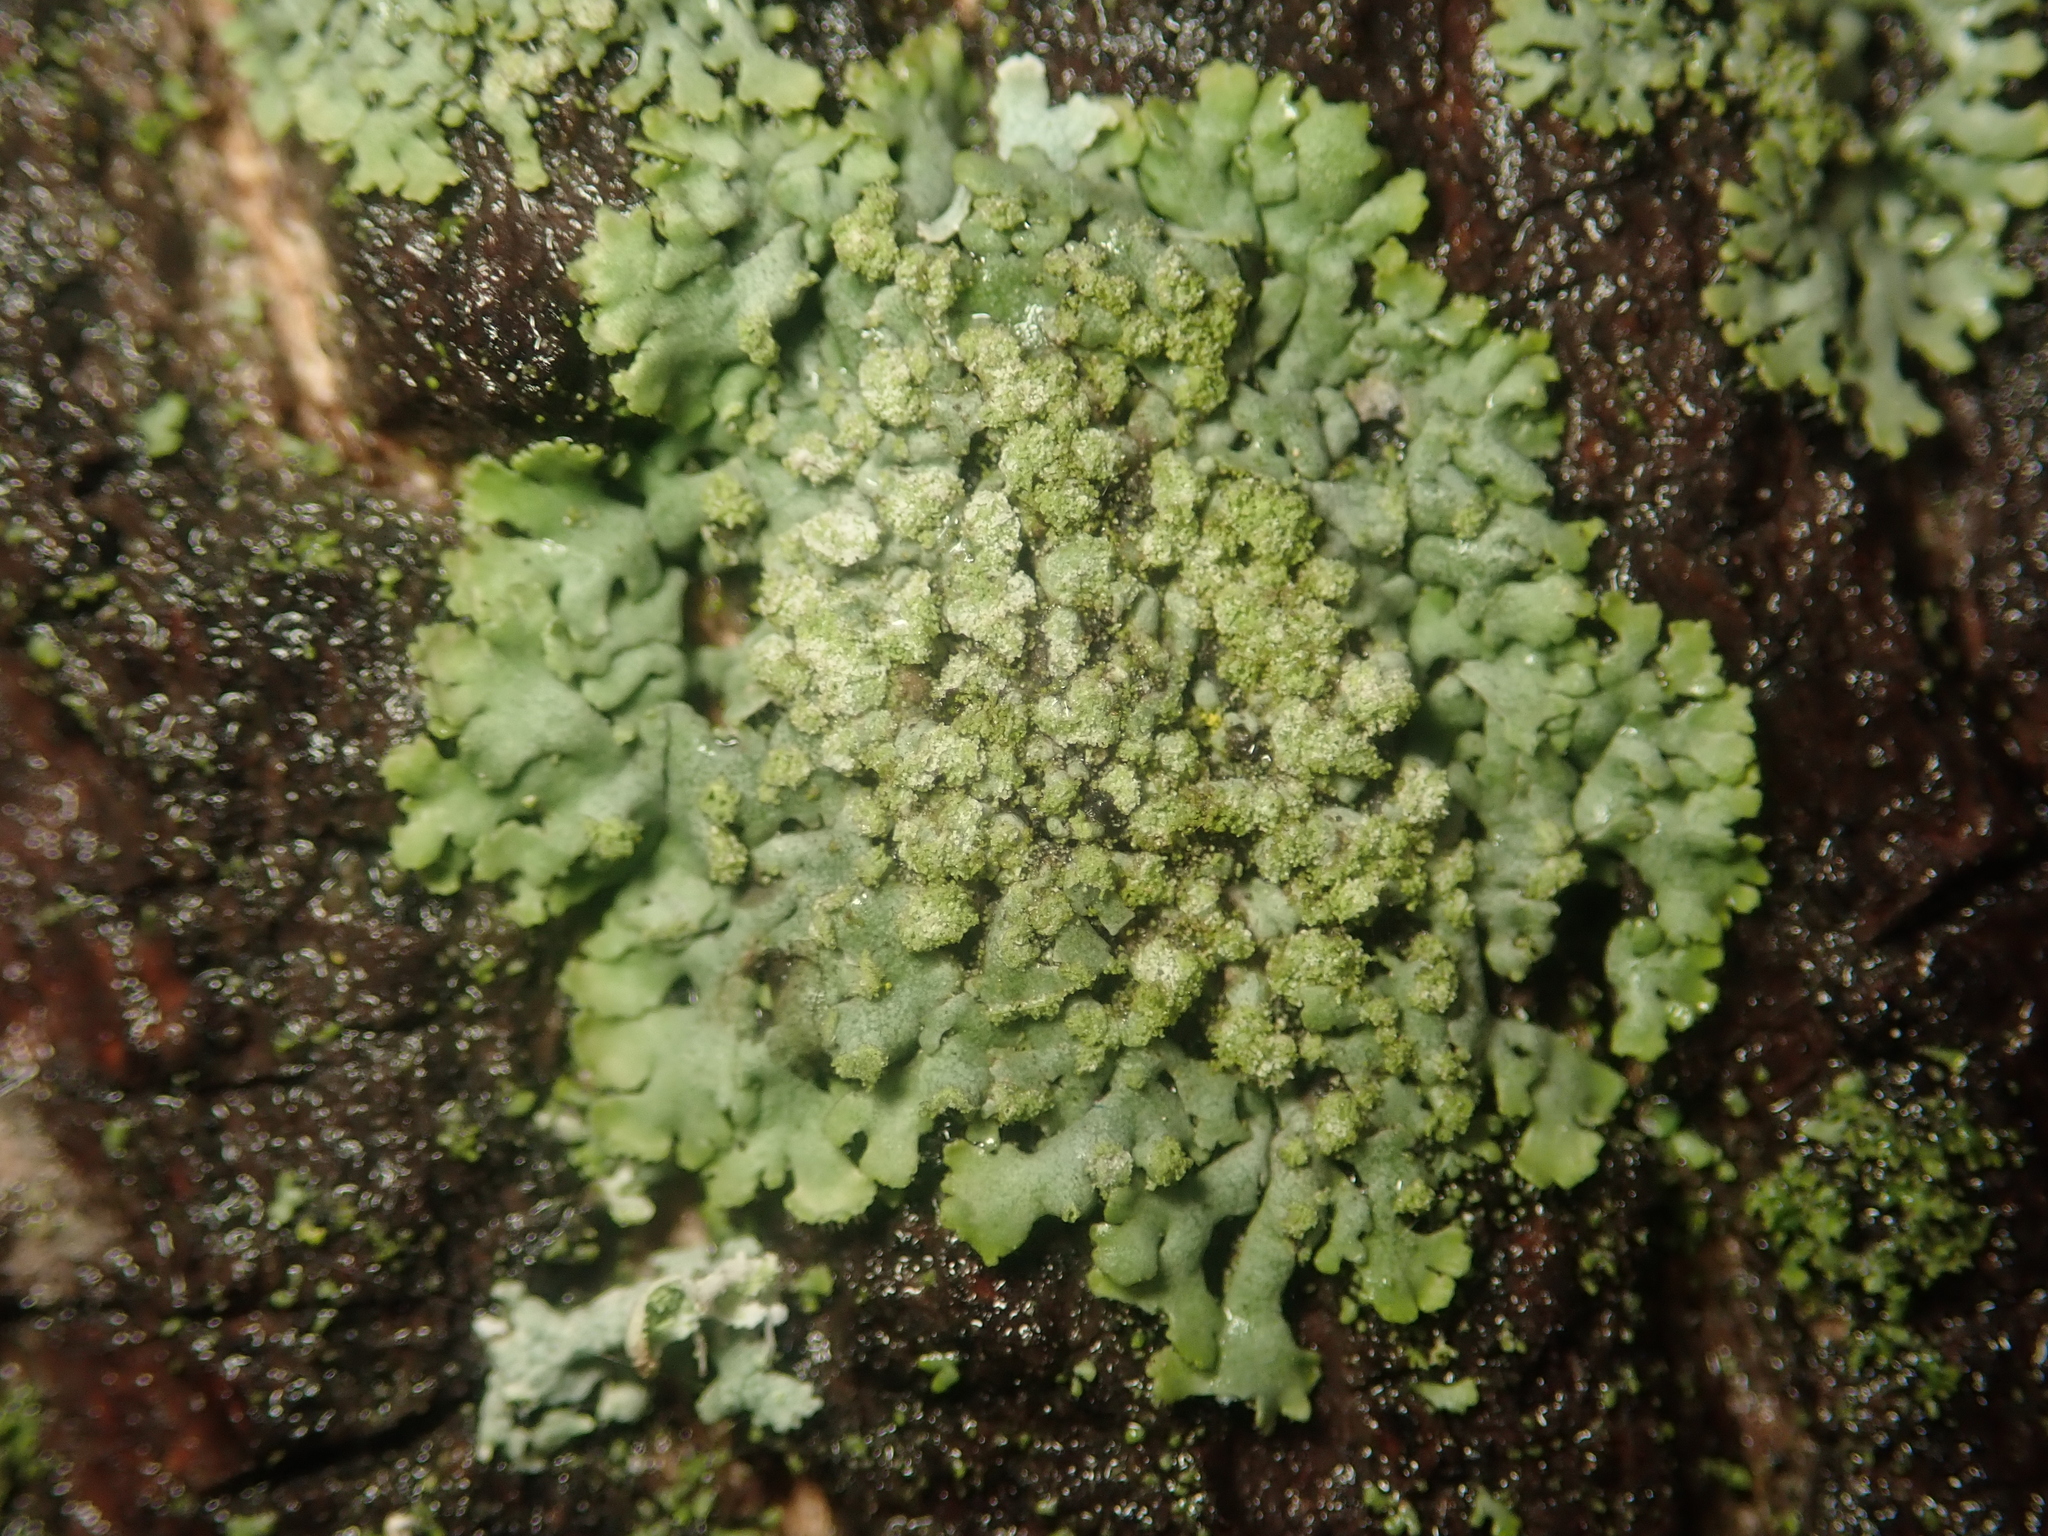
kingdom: Fungi
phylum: Ascomycota
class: Lecanoromycetes
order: Caliciales
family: Physciaceae
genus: Phaeophyscia
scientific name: Phaeophyscia orbicularis
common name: Mealy shadow lichen
